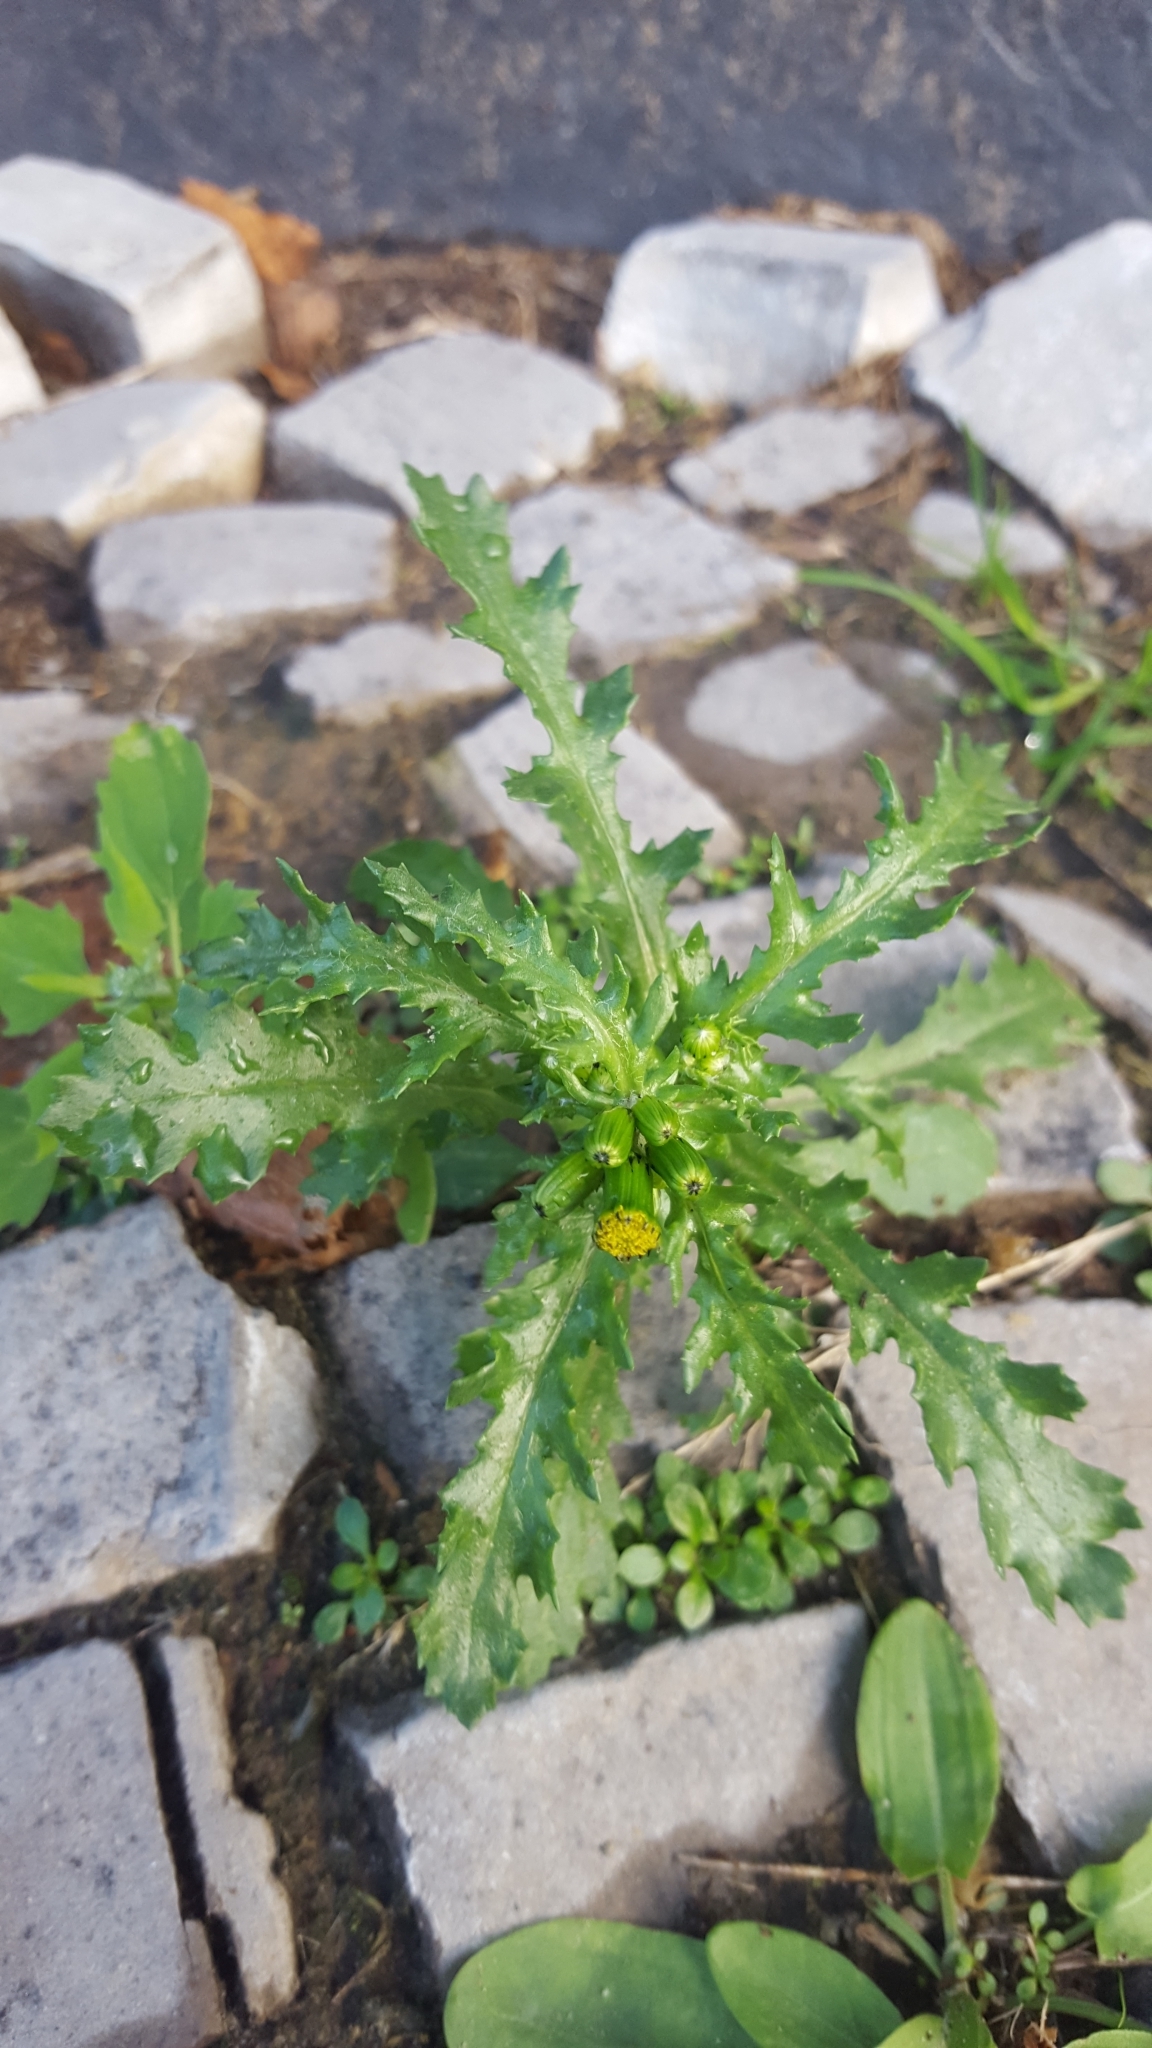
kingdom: Plantae
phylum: Tracheophyta
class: Magnoliopsida
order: Asterales
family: Asteraceae
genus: Senecio
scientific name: Senecio vulgaris
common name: Old-man-in-the-spring
